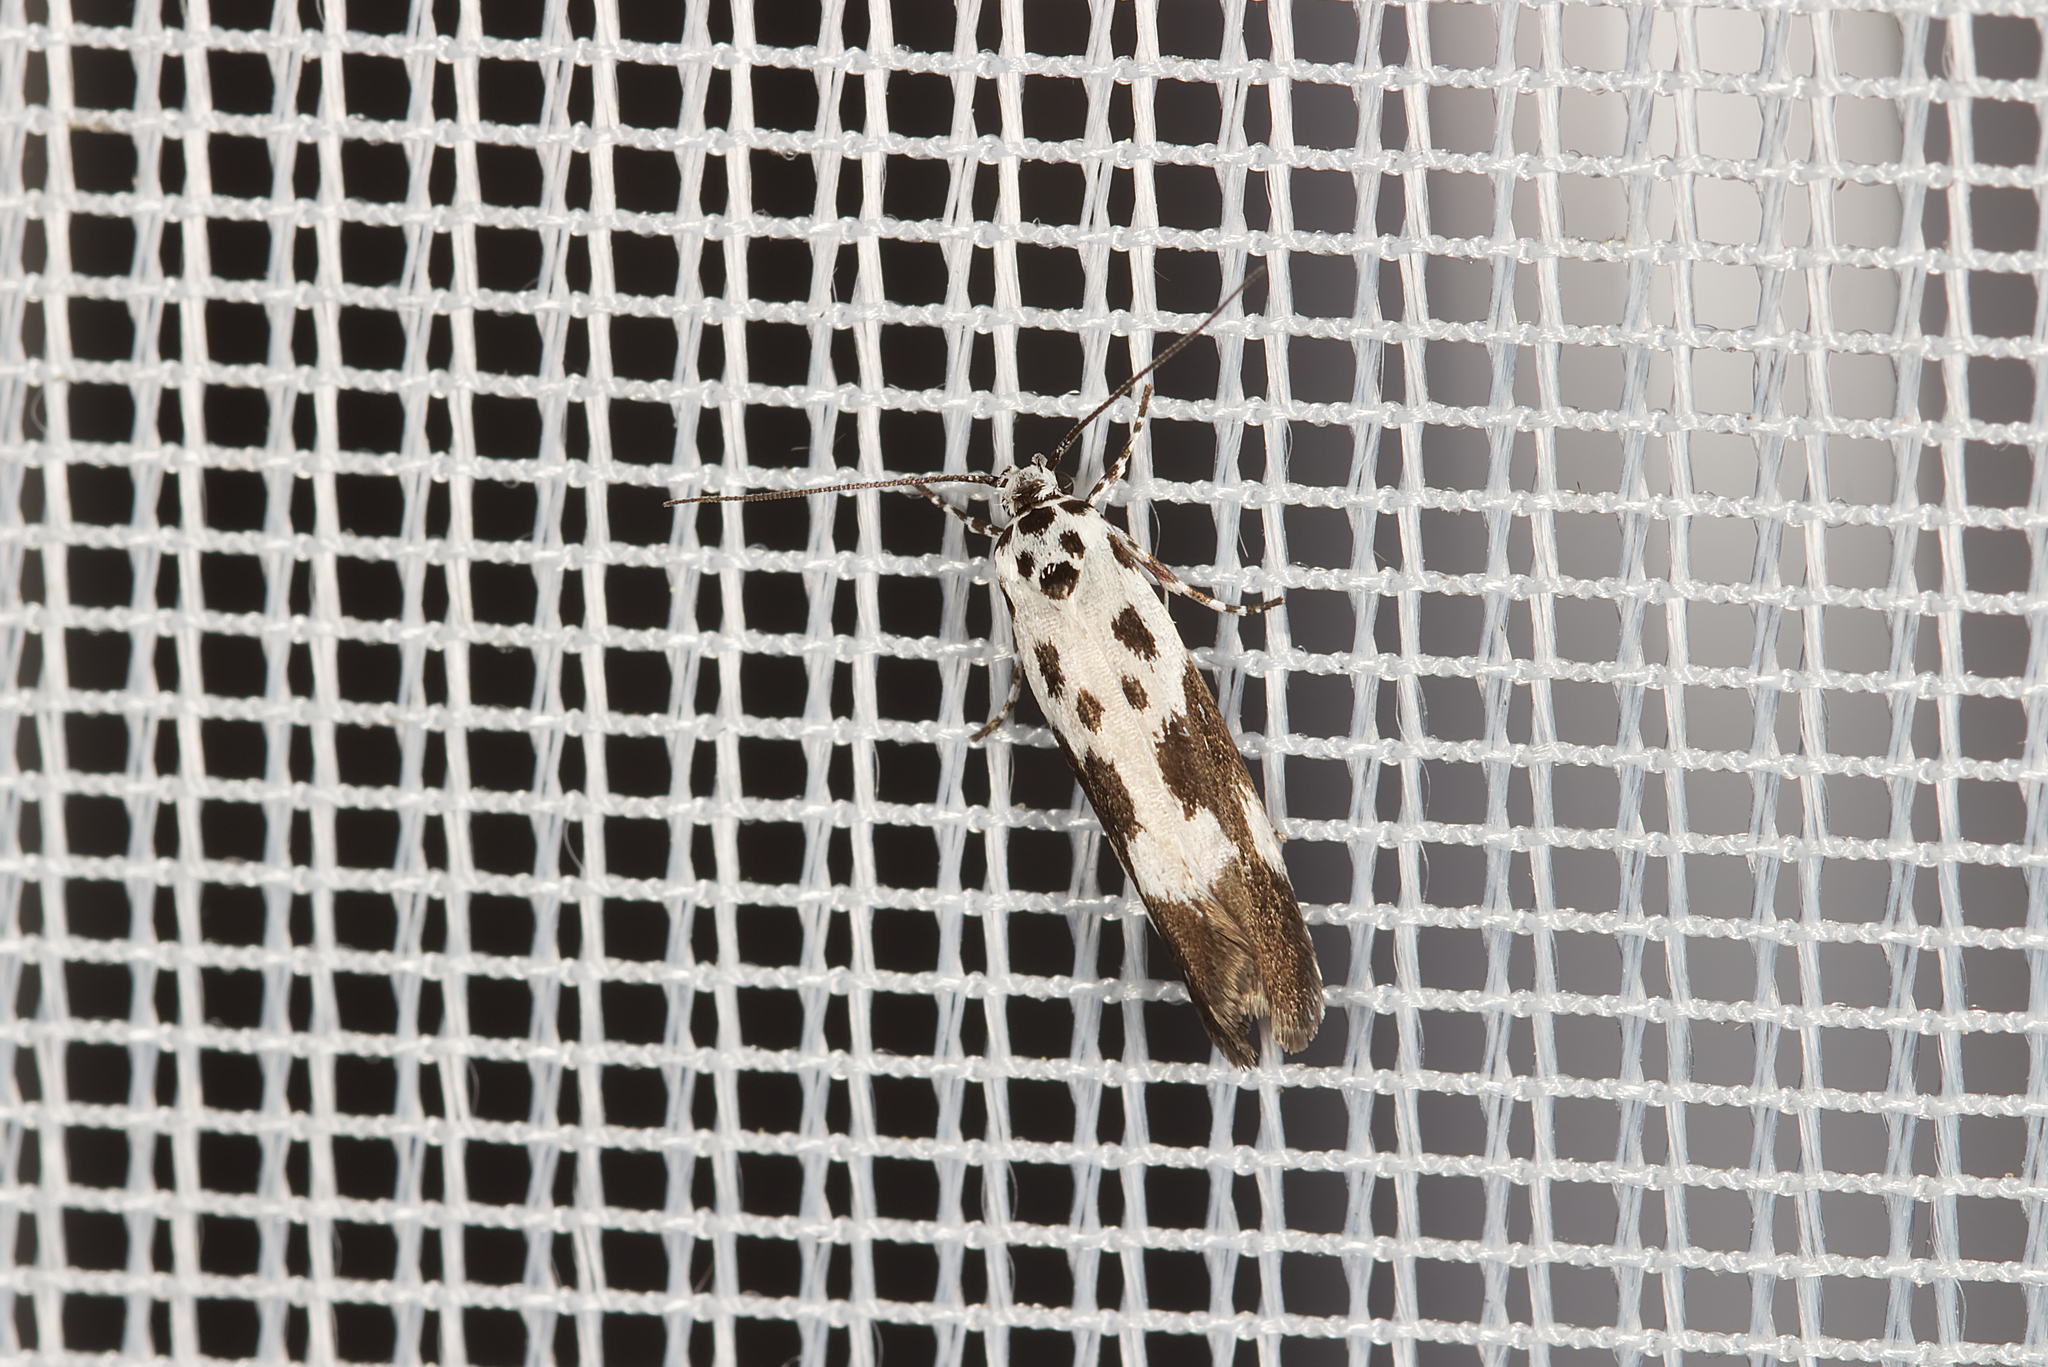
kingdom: Animalia
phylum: Arthropoda
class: Insecta
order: Lepidoptera
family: Ethmiidae
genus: Ethmia
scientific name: Ethmia quadrillella
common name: Comfrey ermel
